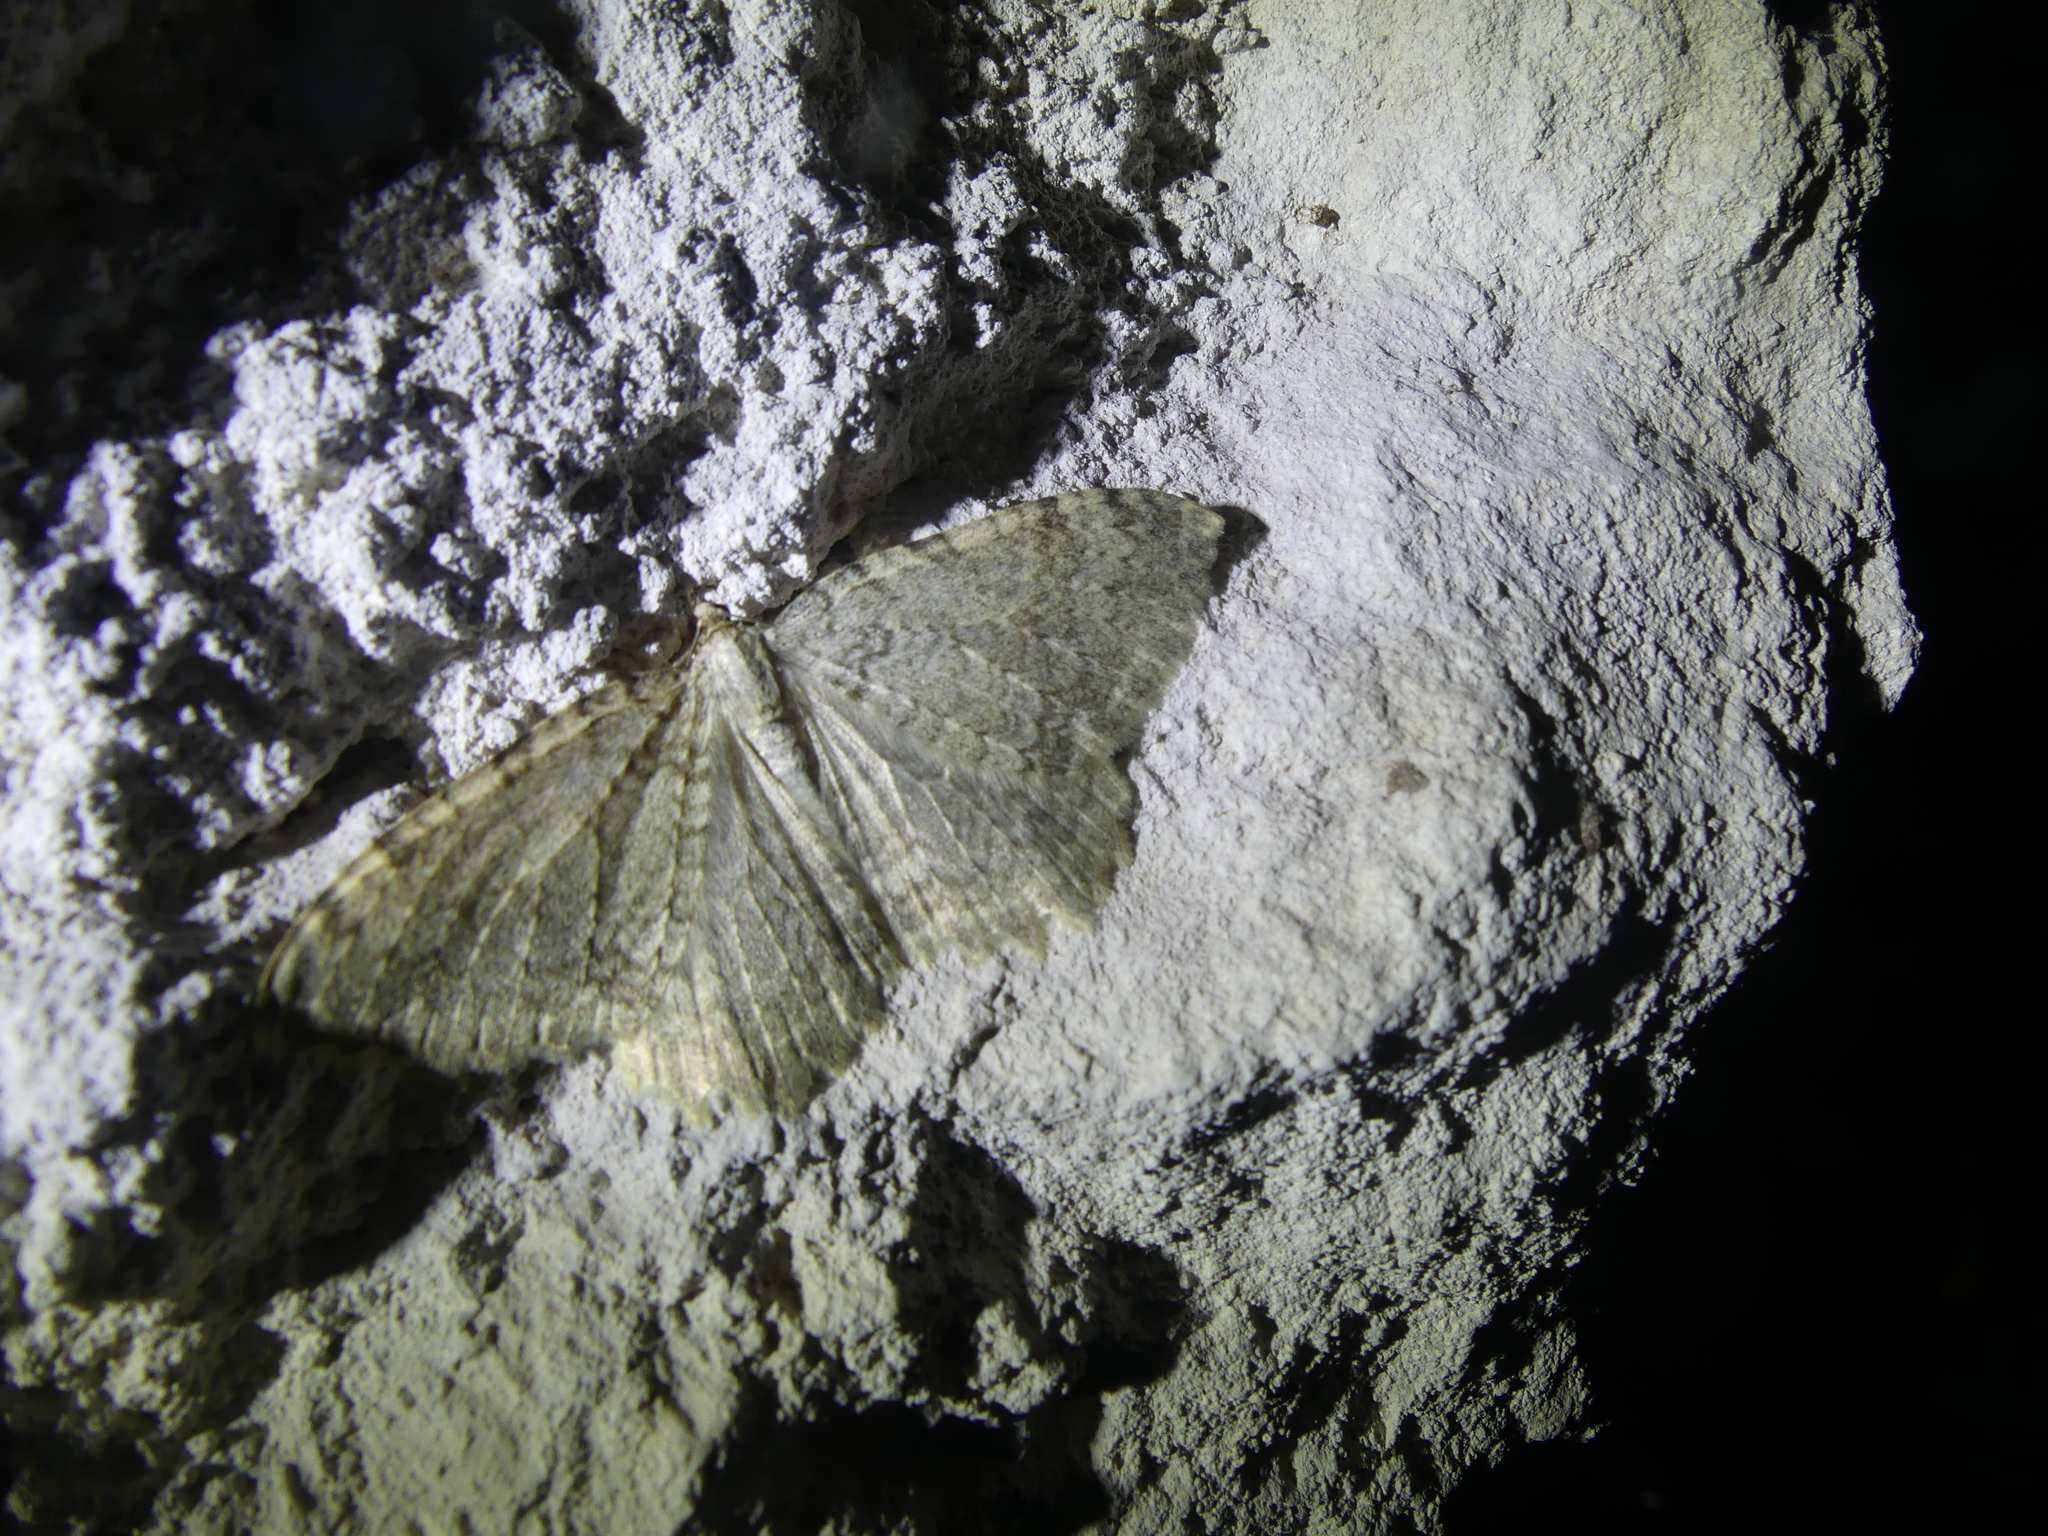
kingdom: Animalia
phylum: Arthropoda
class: Insecta
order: Lepidoptera
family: Geometridae
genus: Triphosa
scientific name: Triphosa sabaudiata
